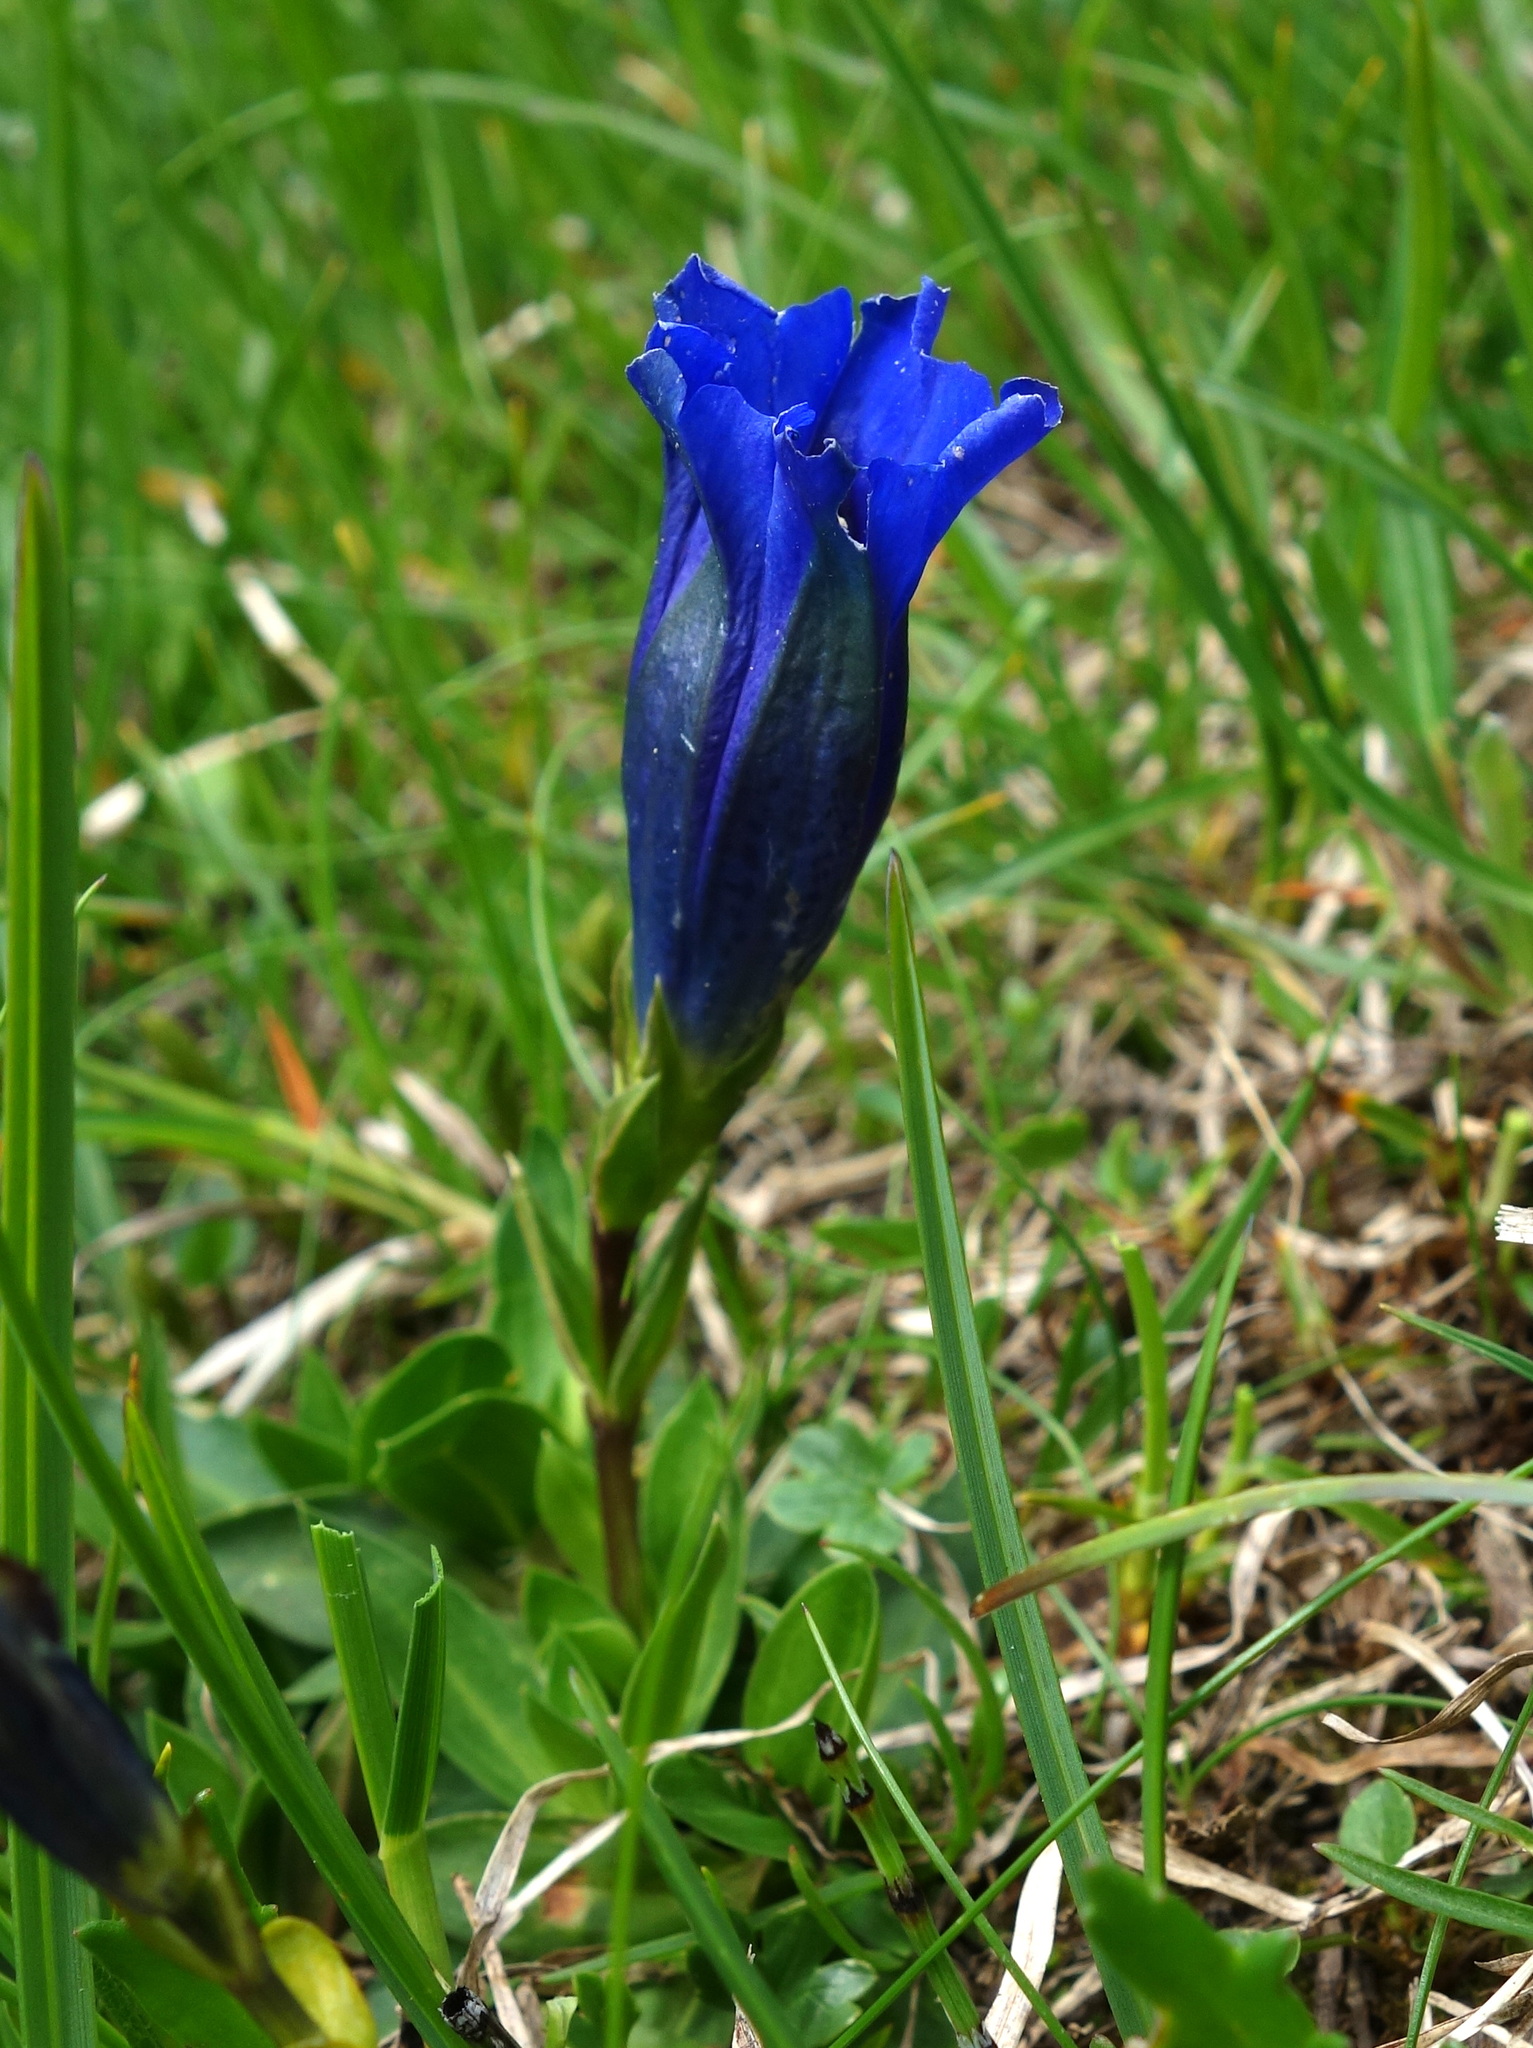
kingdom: Plantae
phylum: Tracheophyta
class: Magnoliopsida
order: Gentianales
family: Gentianaceae
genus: Gentiana
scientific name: Gentiana clusii
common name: Trumpet gentian
